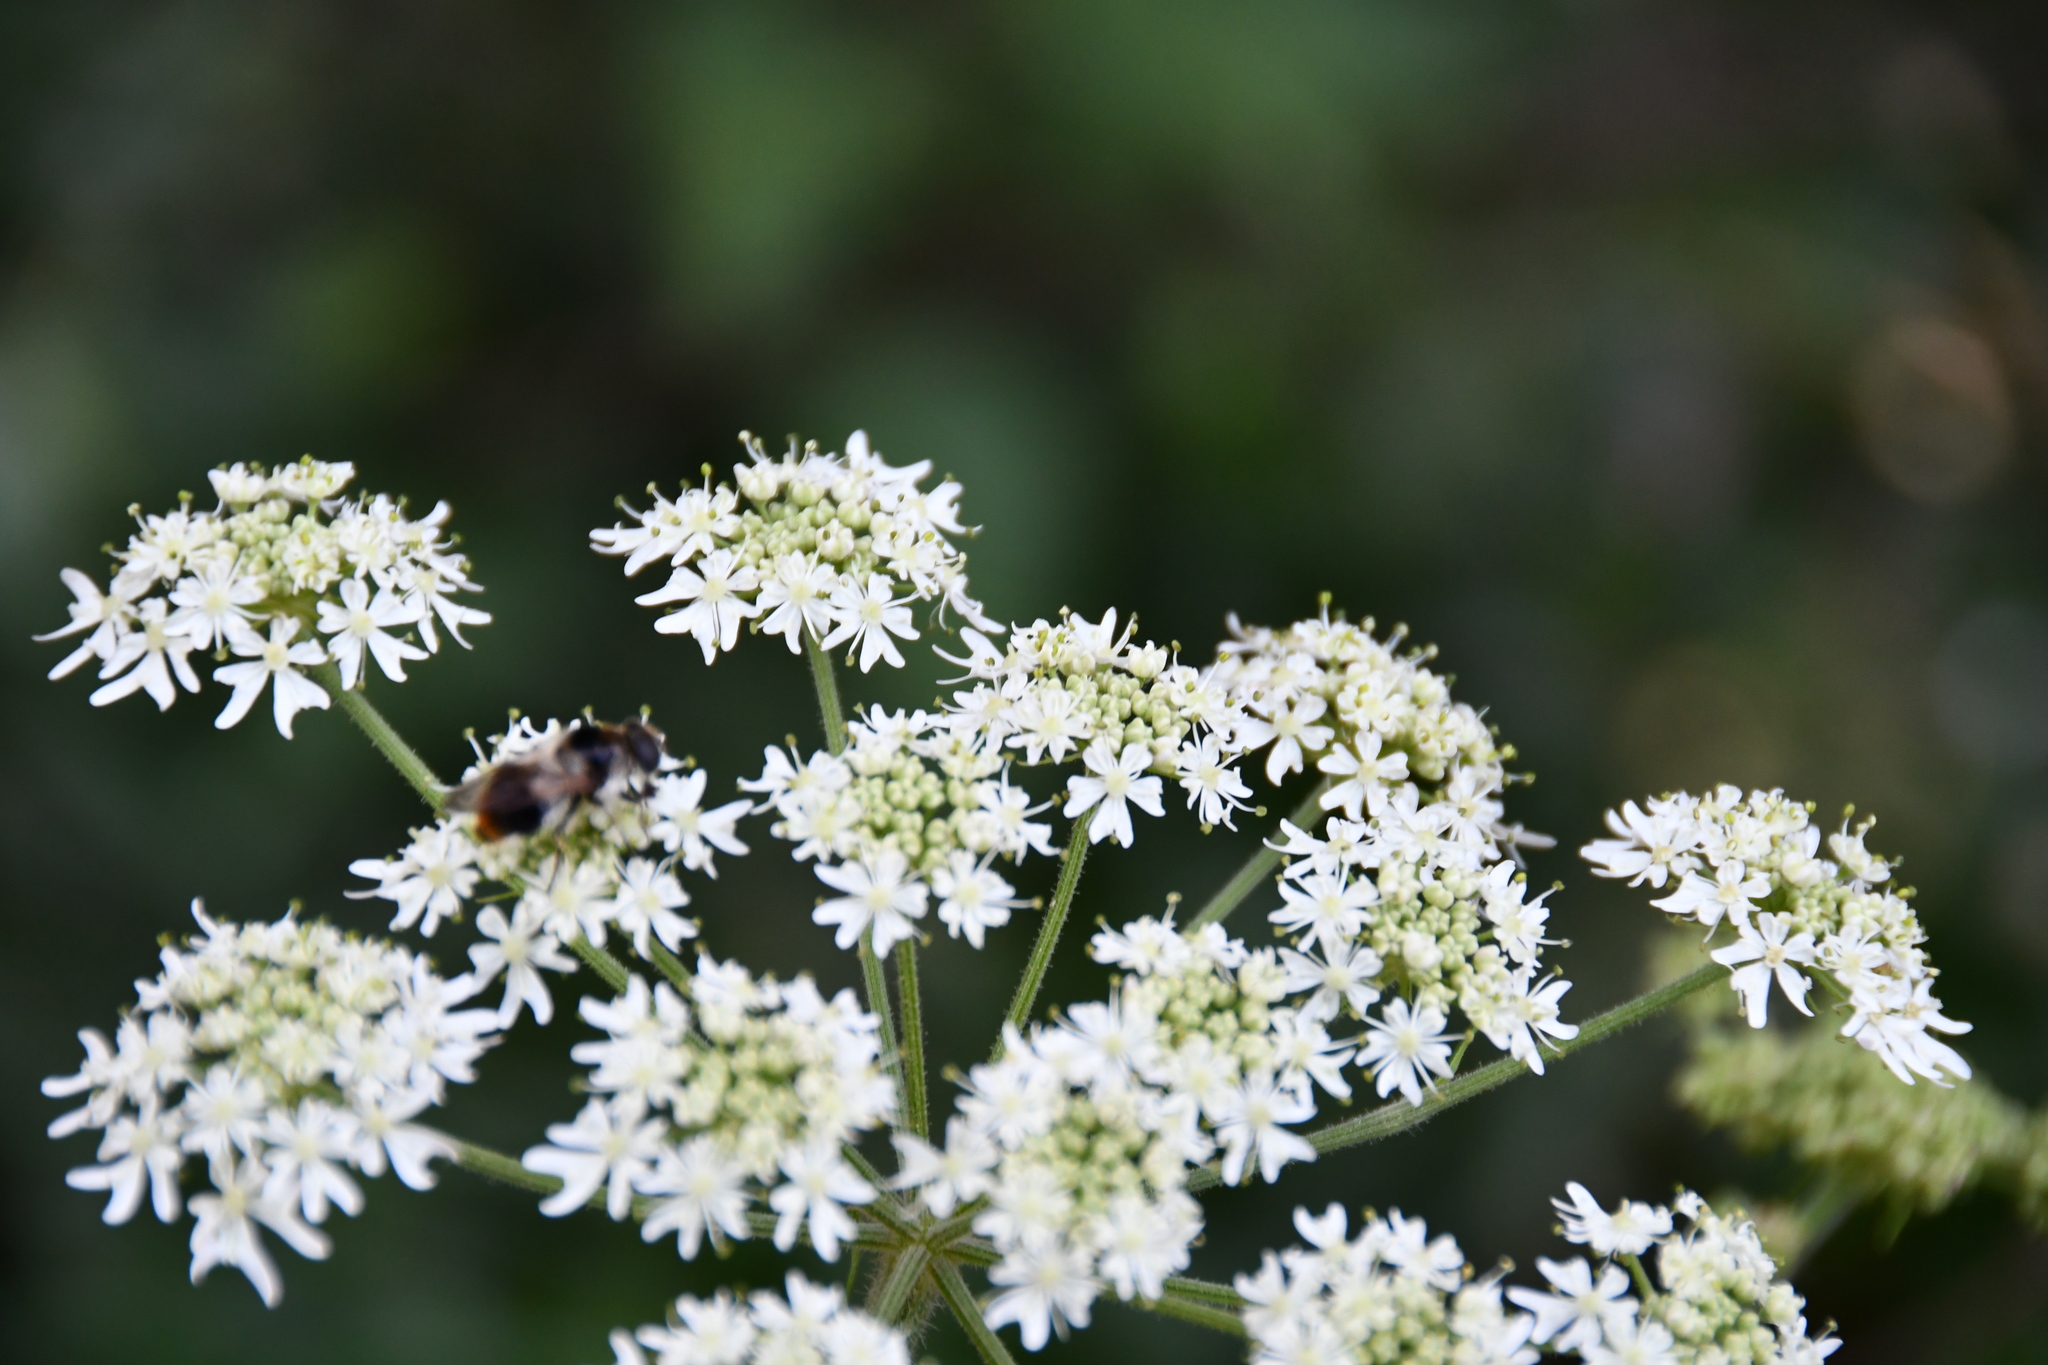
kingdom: Animalia
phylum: Arthropoda
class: Insecta
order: Diptera
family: Syrphidae
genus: Cheilosia
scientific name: Cheilosia illustrata
